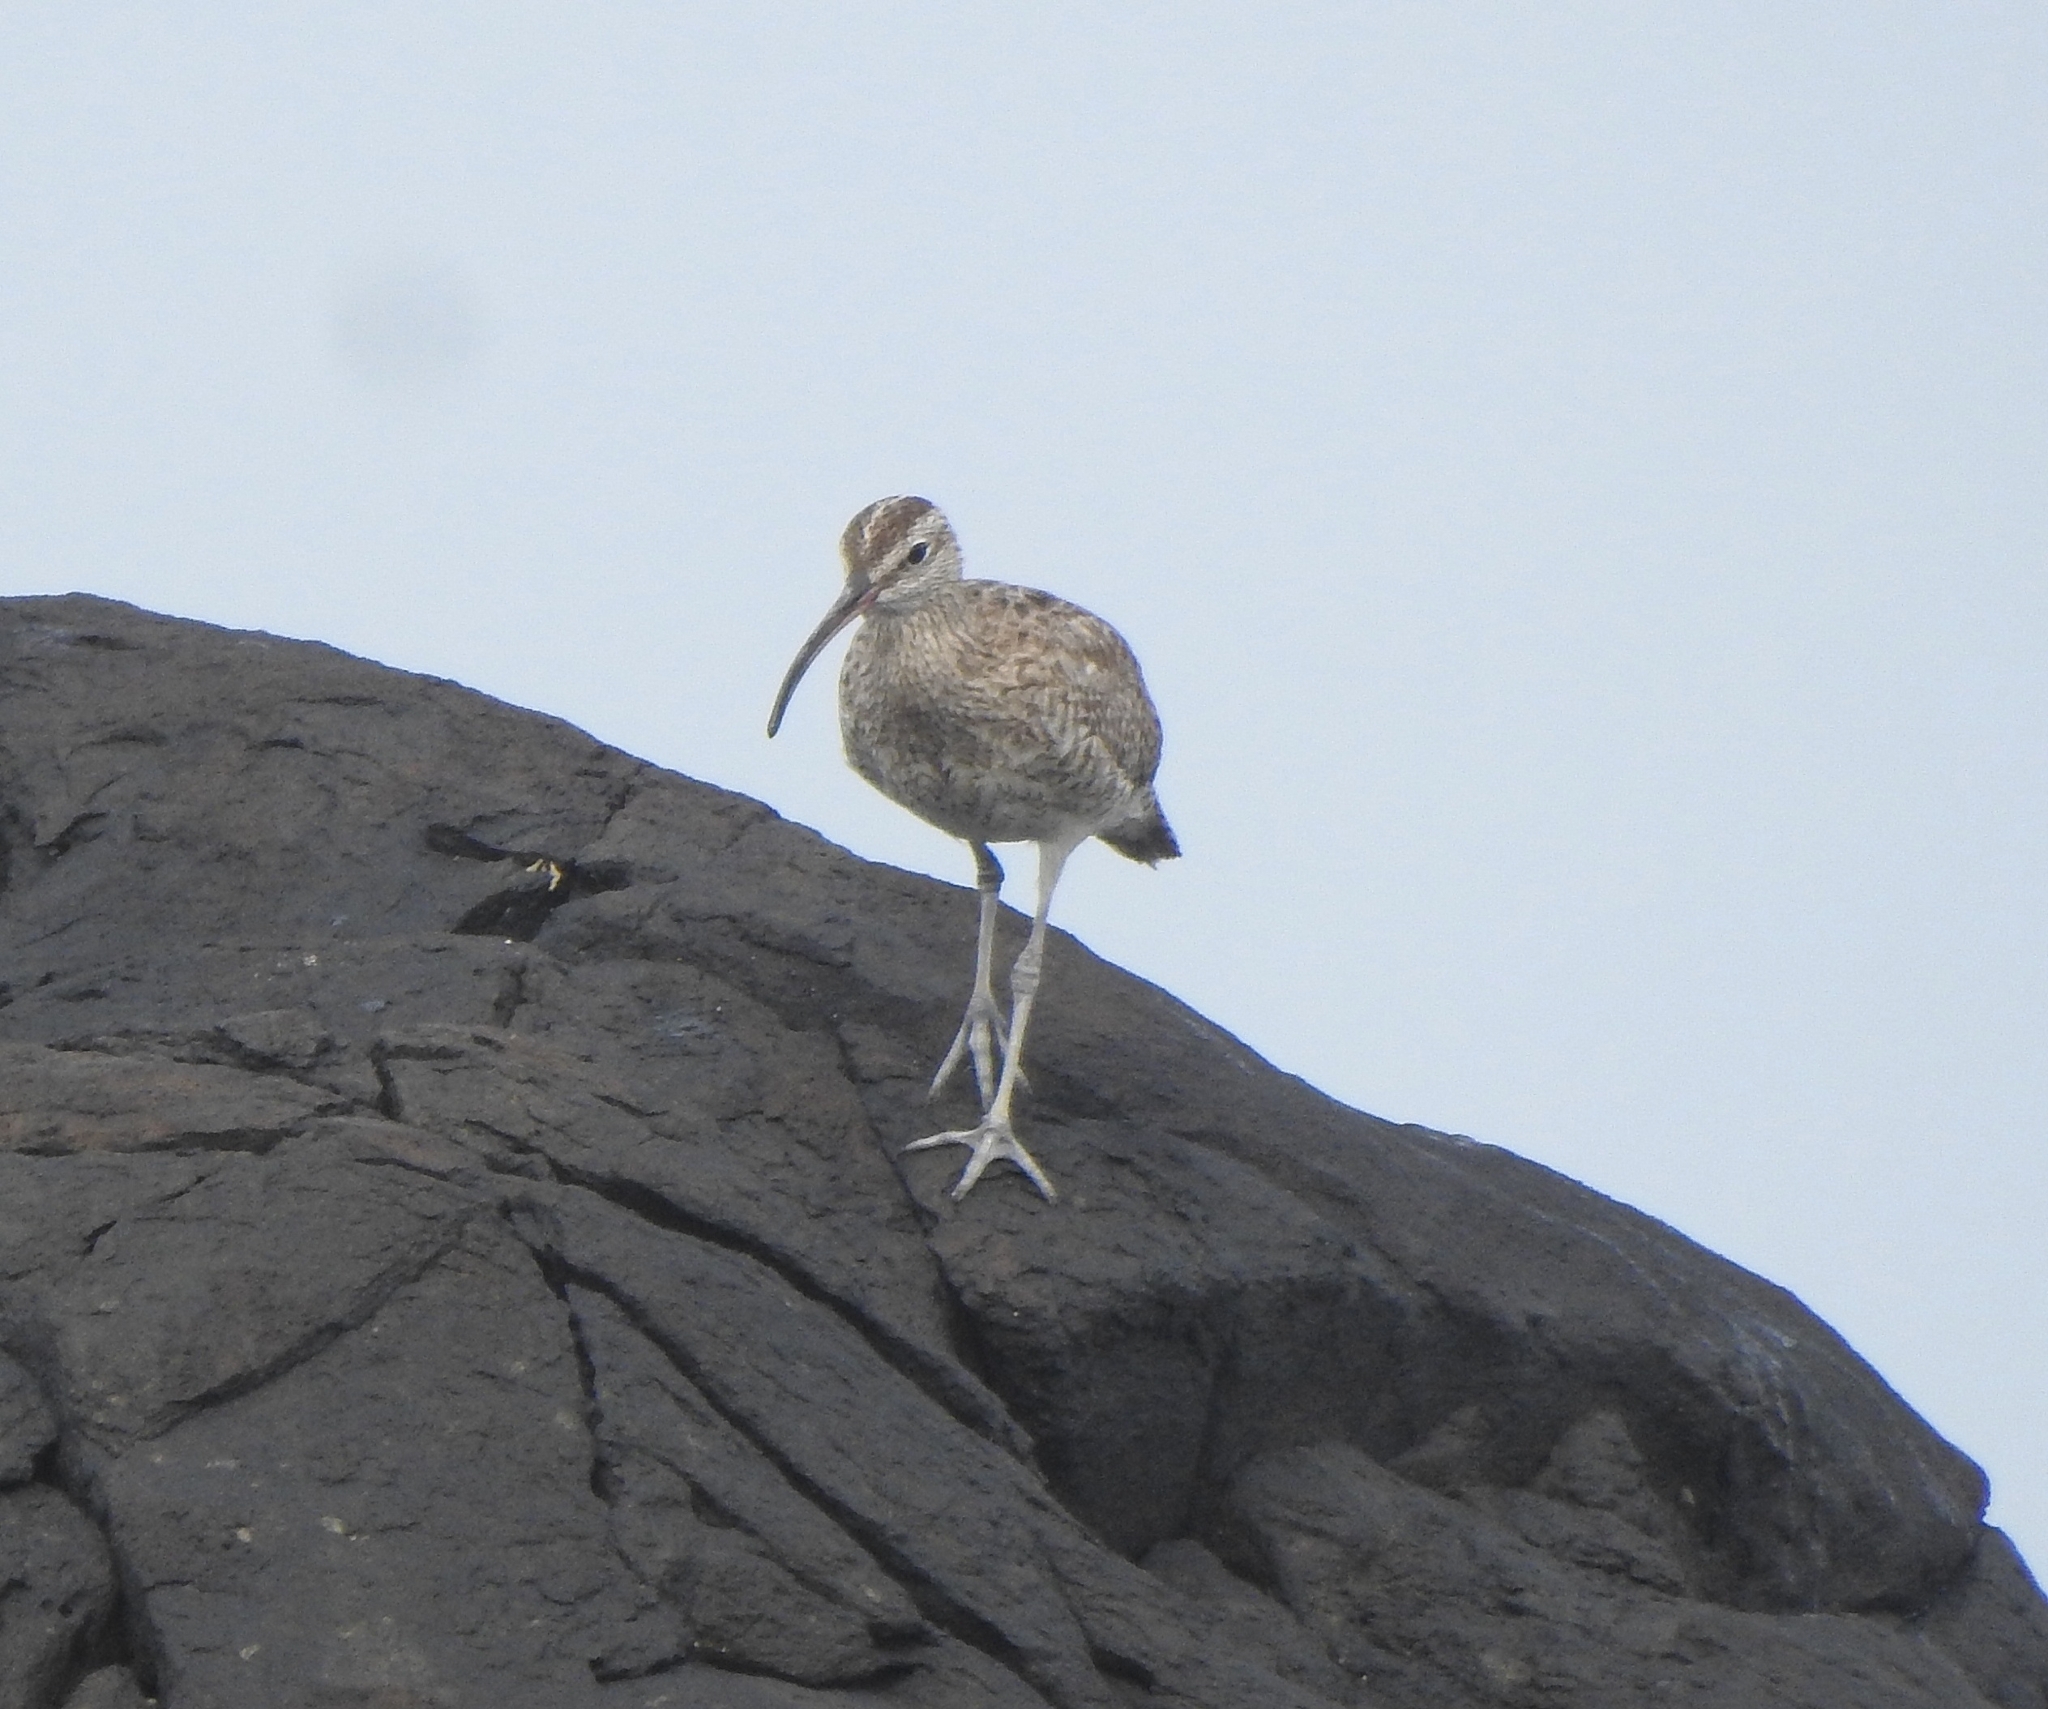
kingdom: Animalia
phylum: Chordata
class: Aves
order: Charadriiformes
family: Scolopacidae
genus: Numenius
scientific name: Numenius phaeopus
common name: Whimbrel
